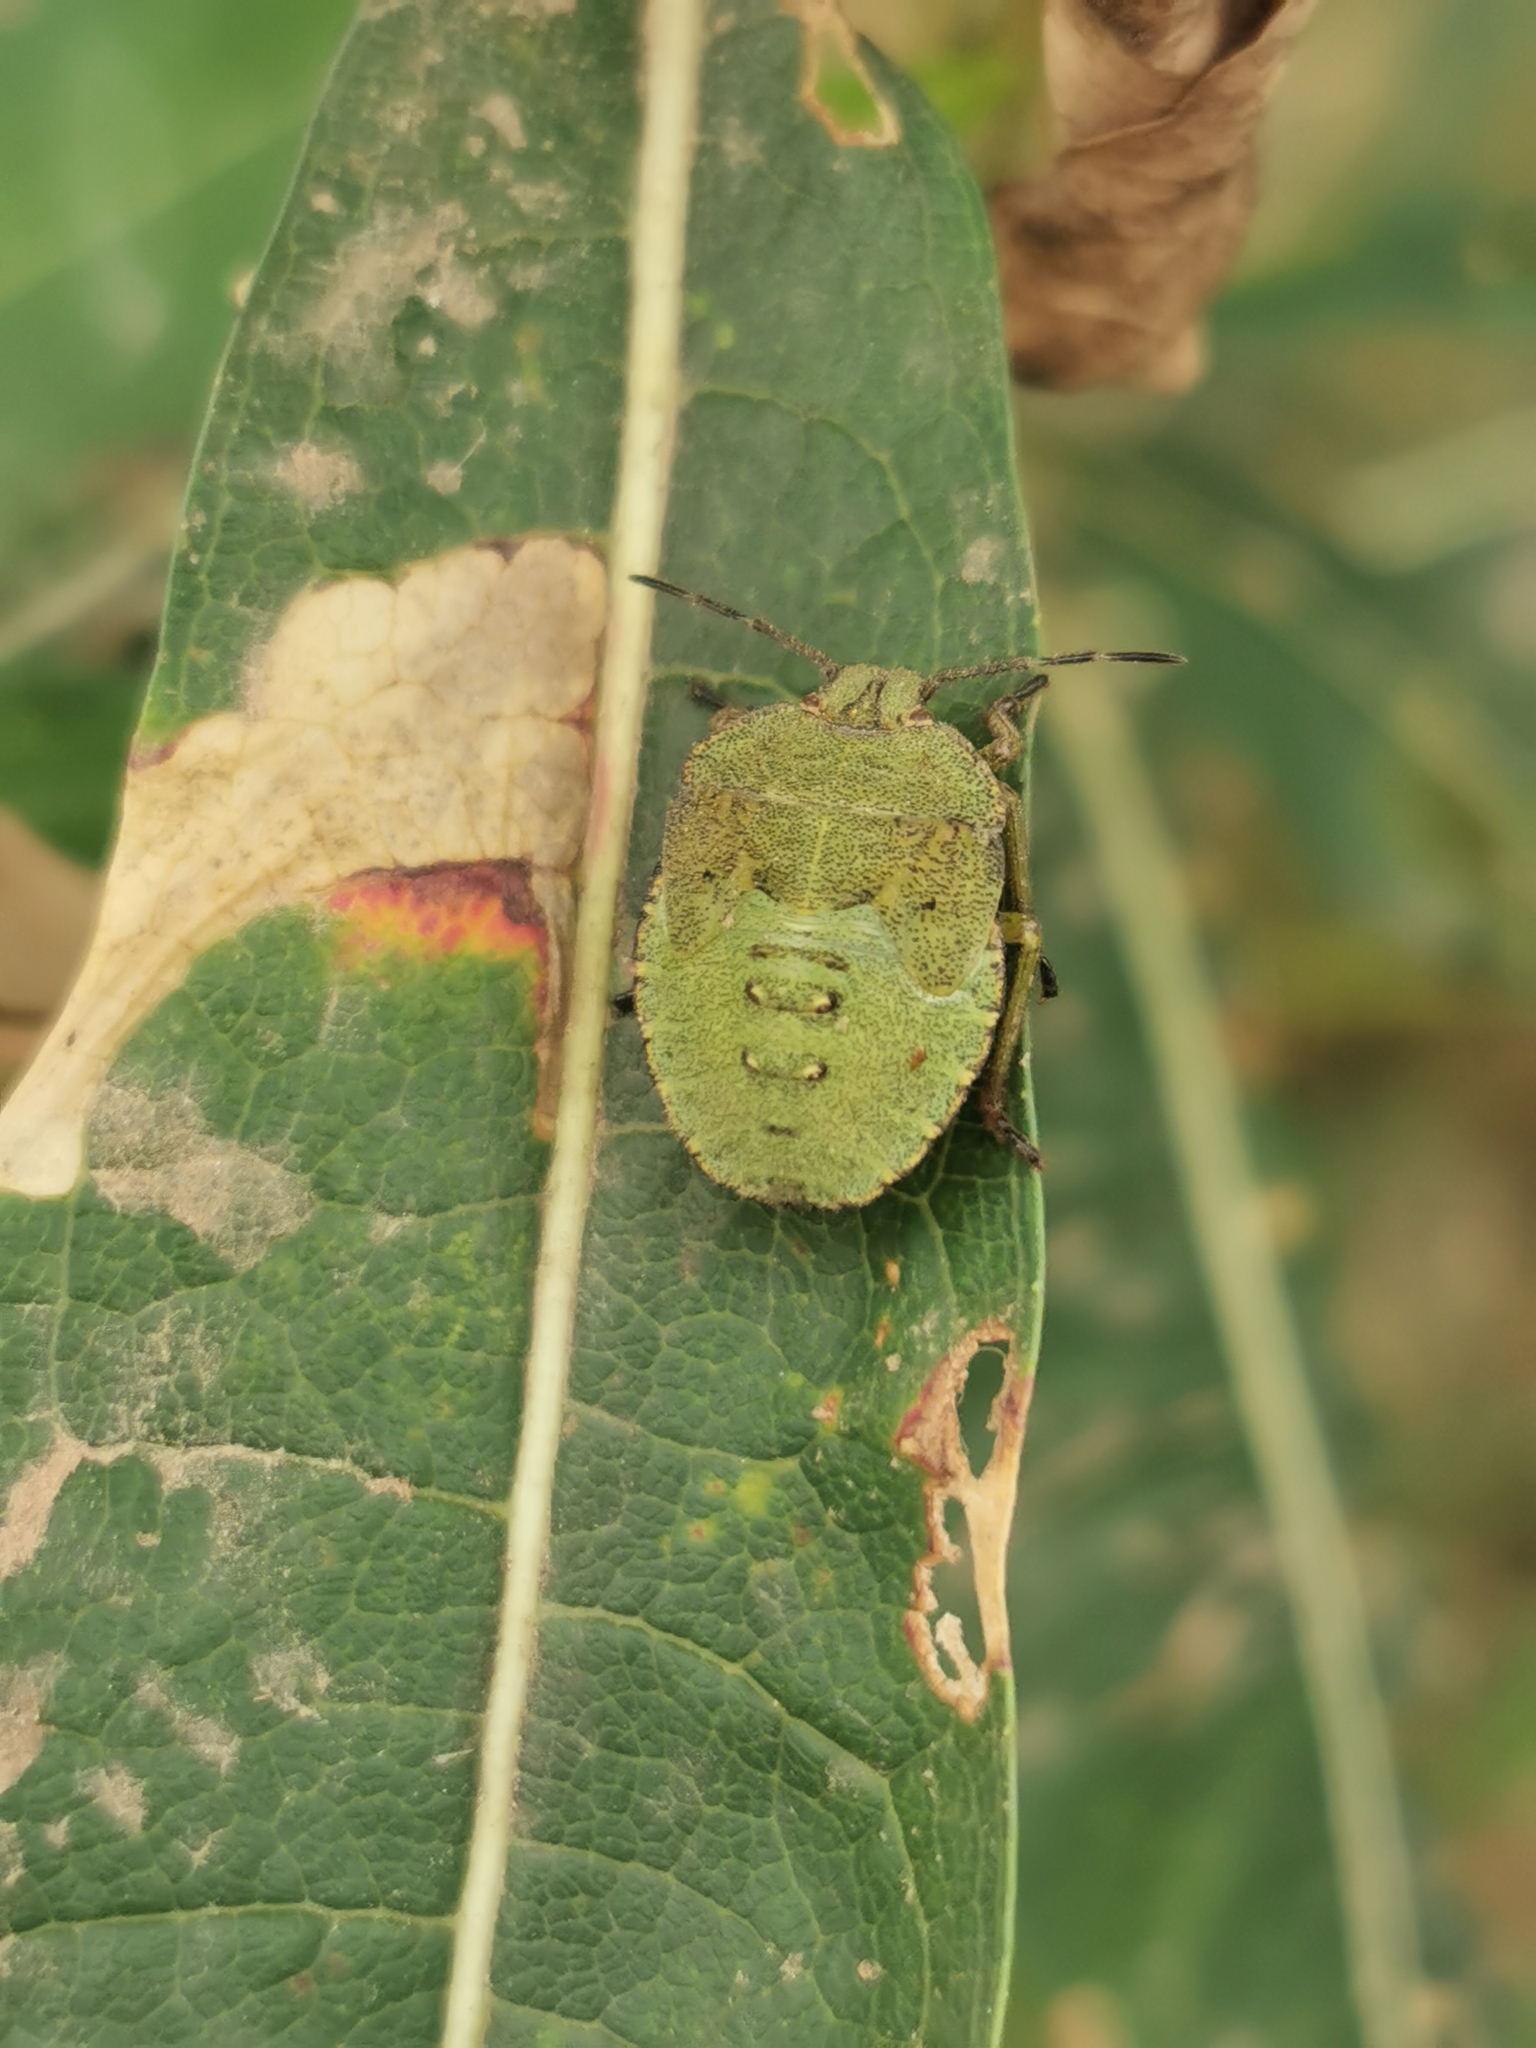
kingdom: Animalia
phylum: Arthropoda
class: Insecta
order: Hemiptera
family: Pentatomidae
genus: Palomena
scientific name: Palomena prasina
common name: Green shieldbug
